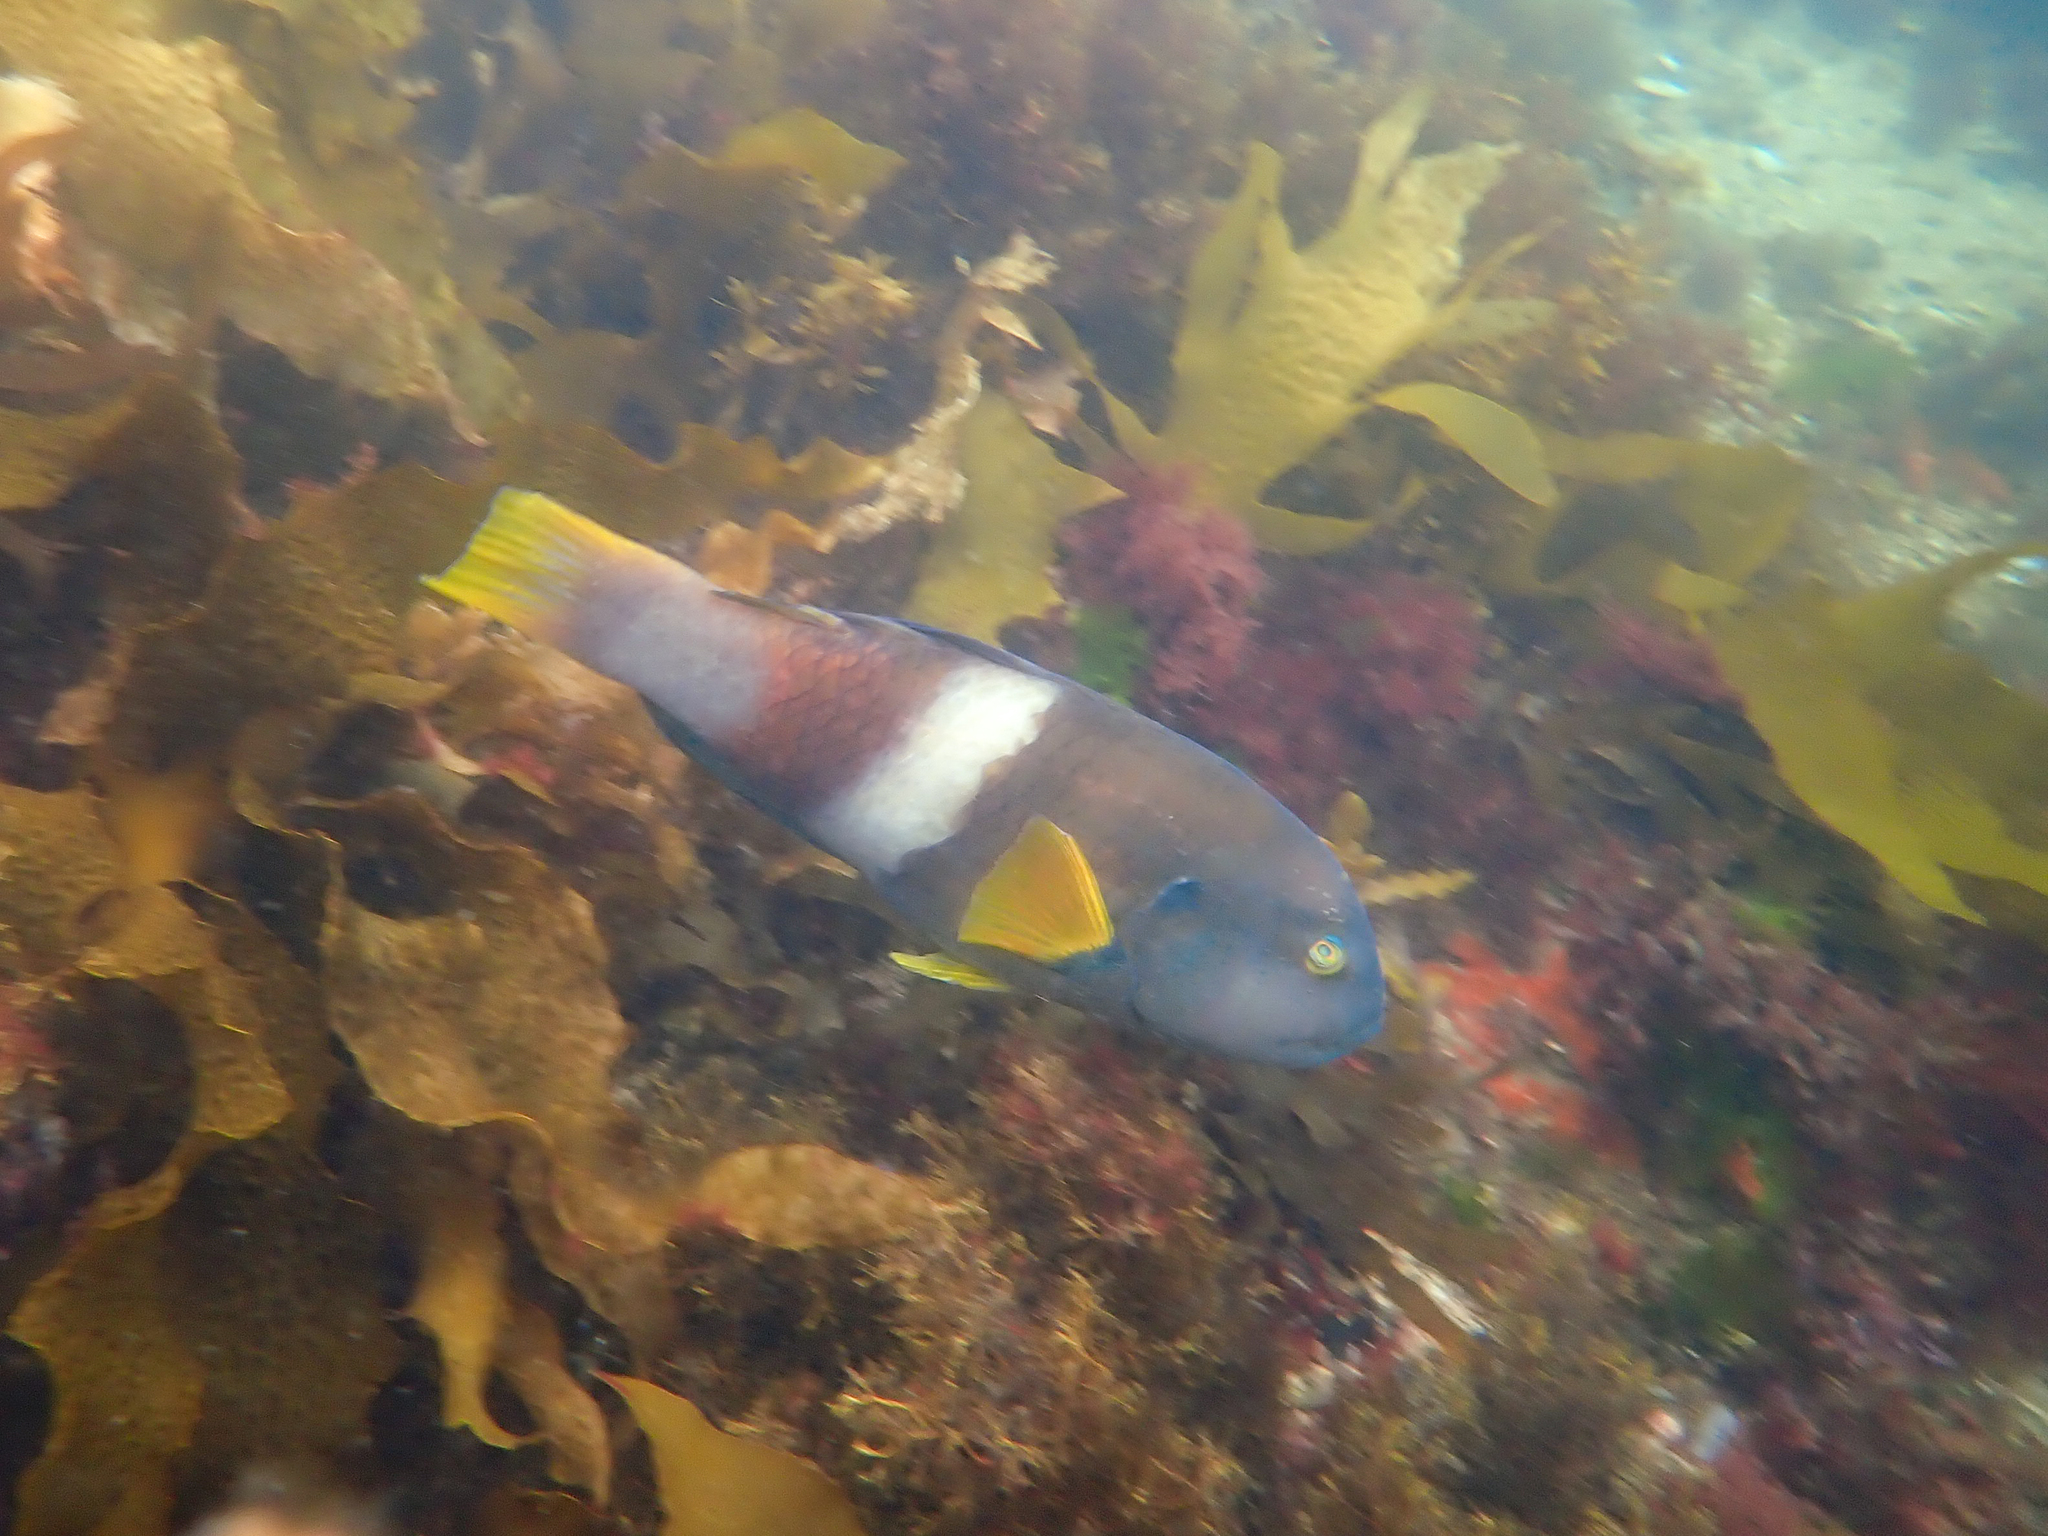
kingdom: Animalia
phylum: Chordata
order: Perciformes
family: Labridae
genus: Notolabrus
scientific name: Notolabrus tetricus
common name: Blue-throated parrotfish
